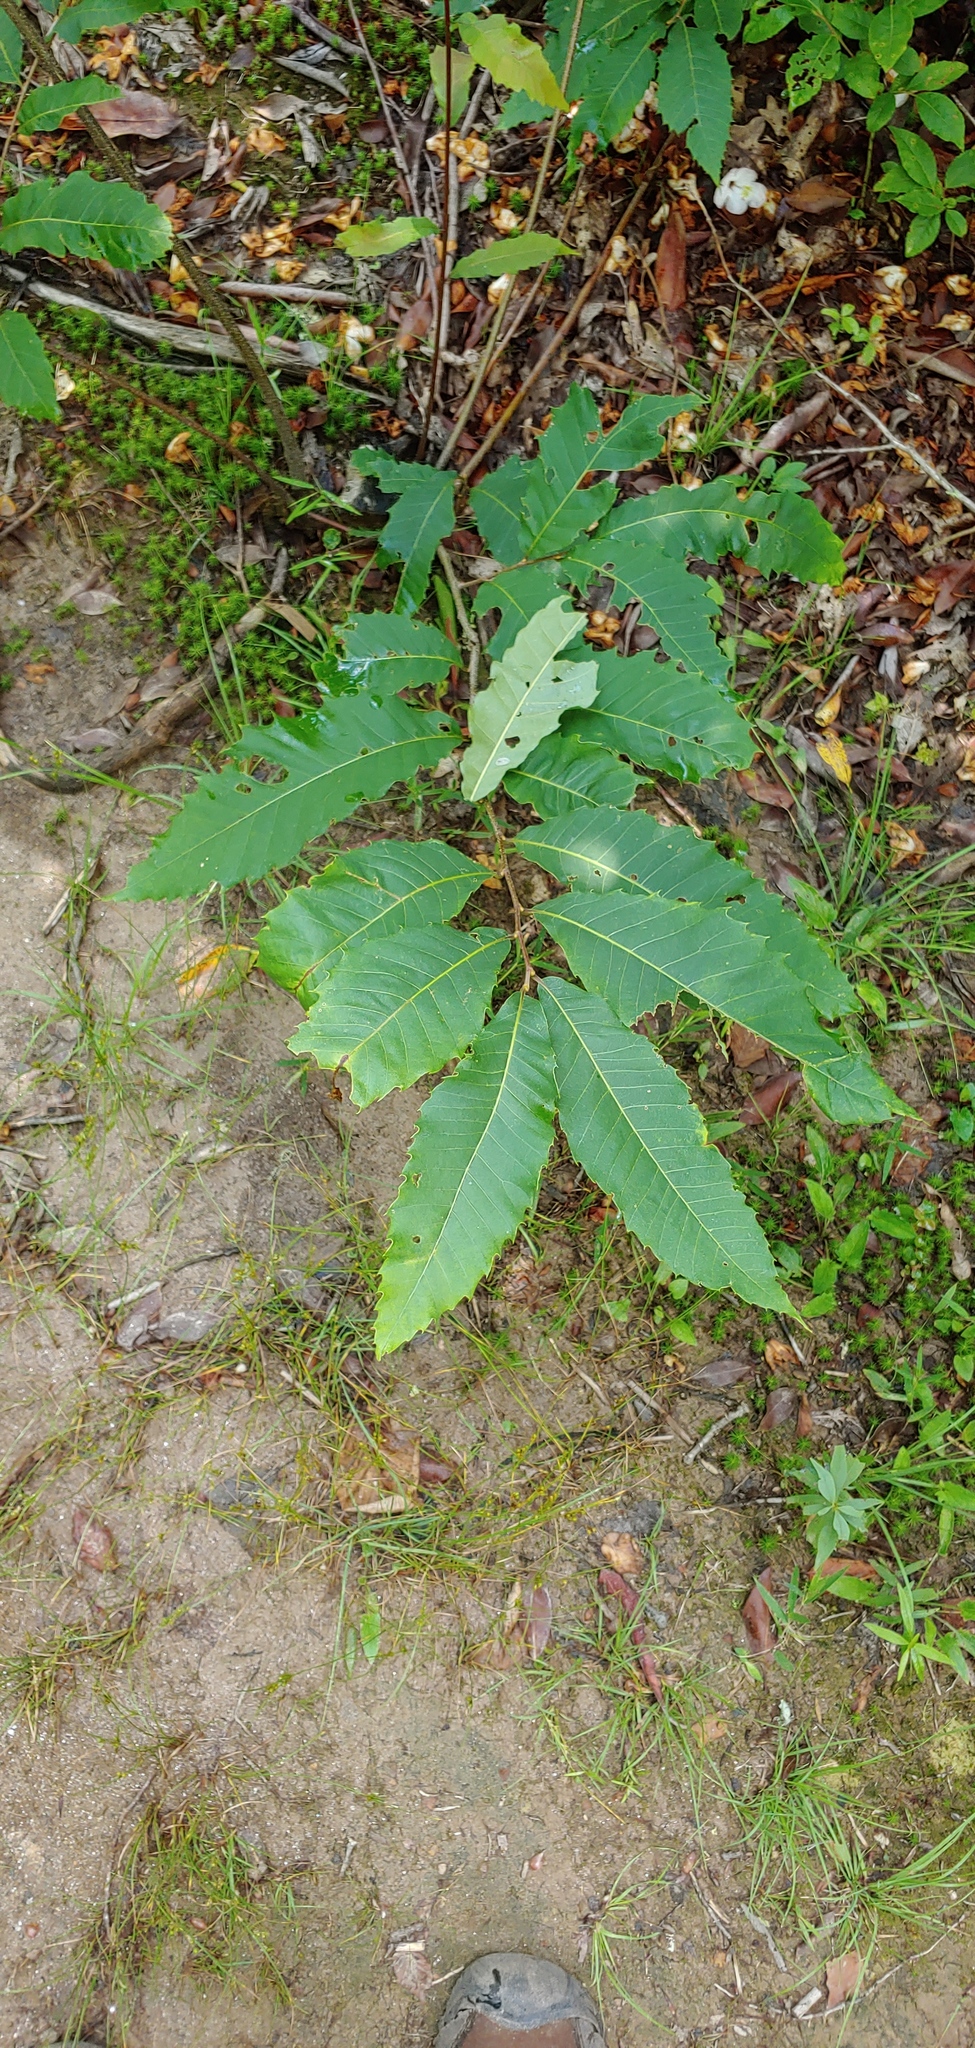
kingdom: Plantae
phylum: Tracheophyta
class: Magnoliopsida
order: Fagales
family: Fagaceae
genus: Castanea
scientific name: Castanea dentata
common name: American chestnut
